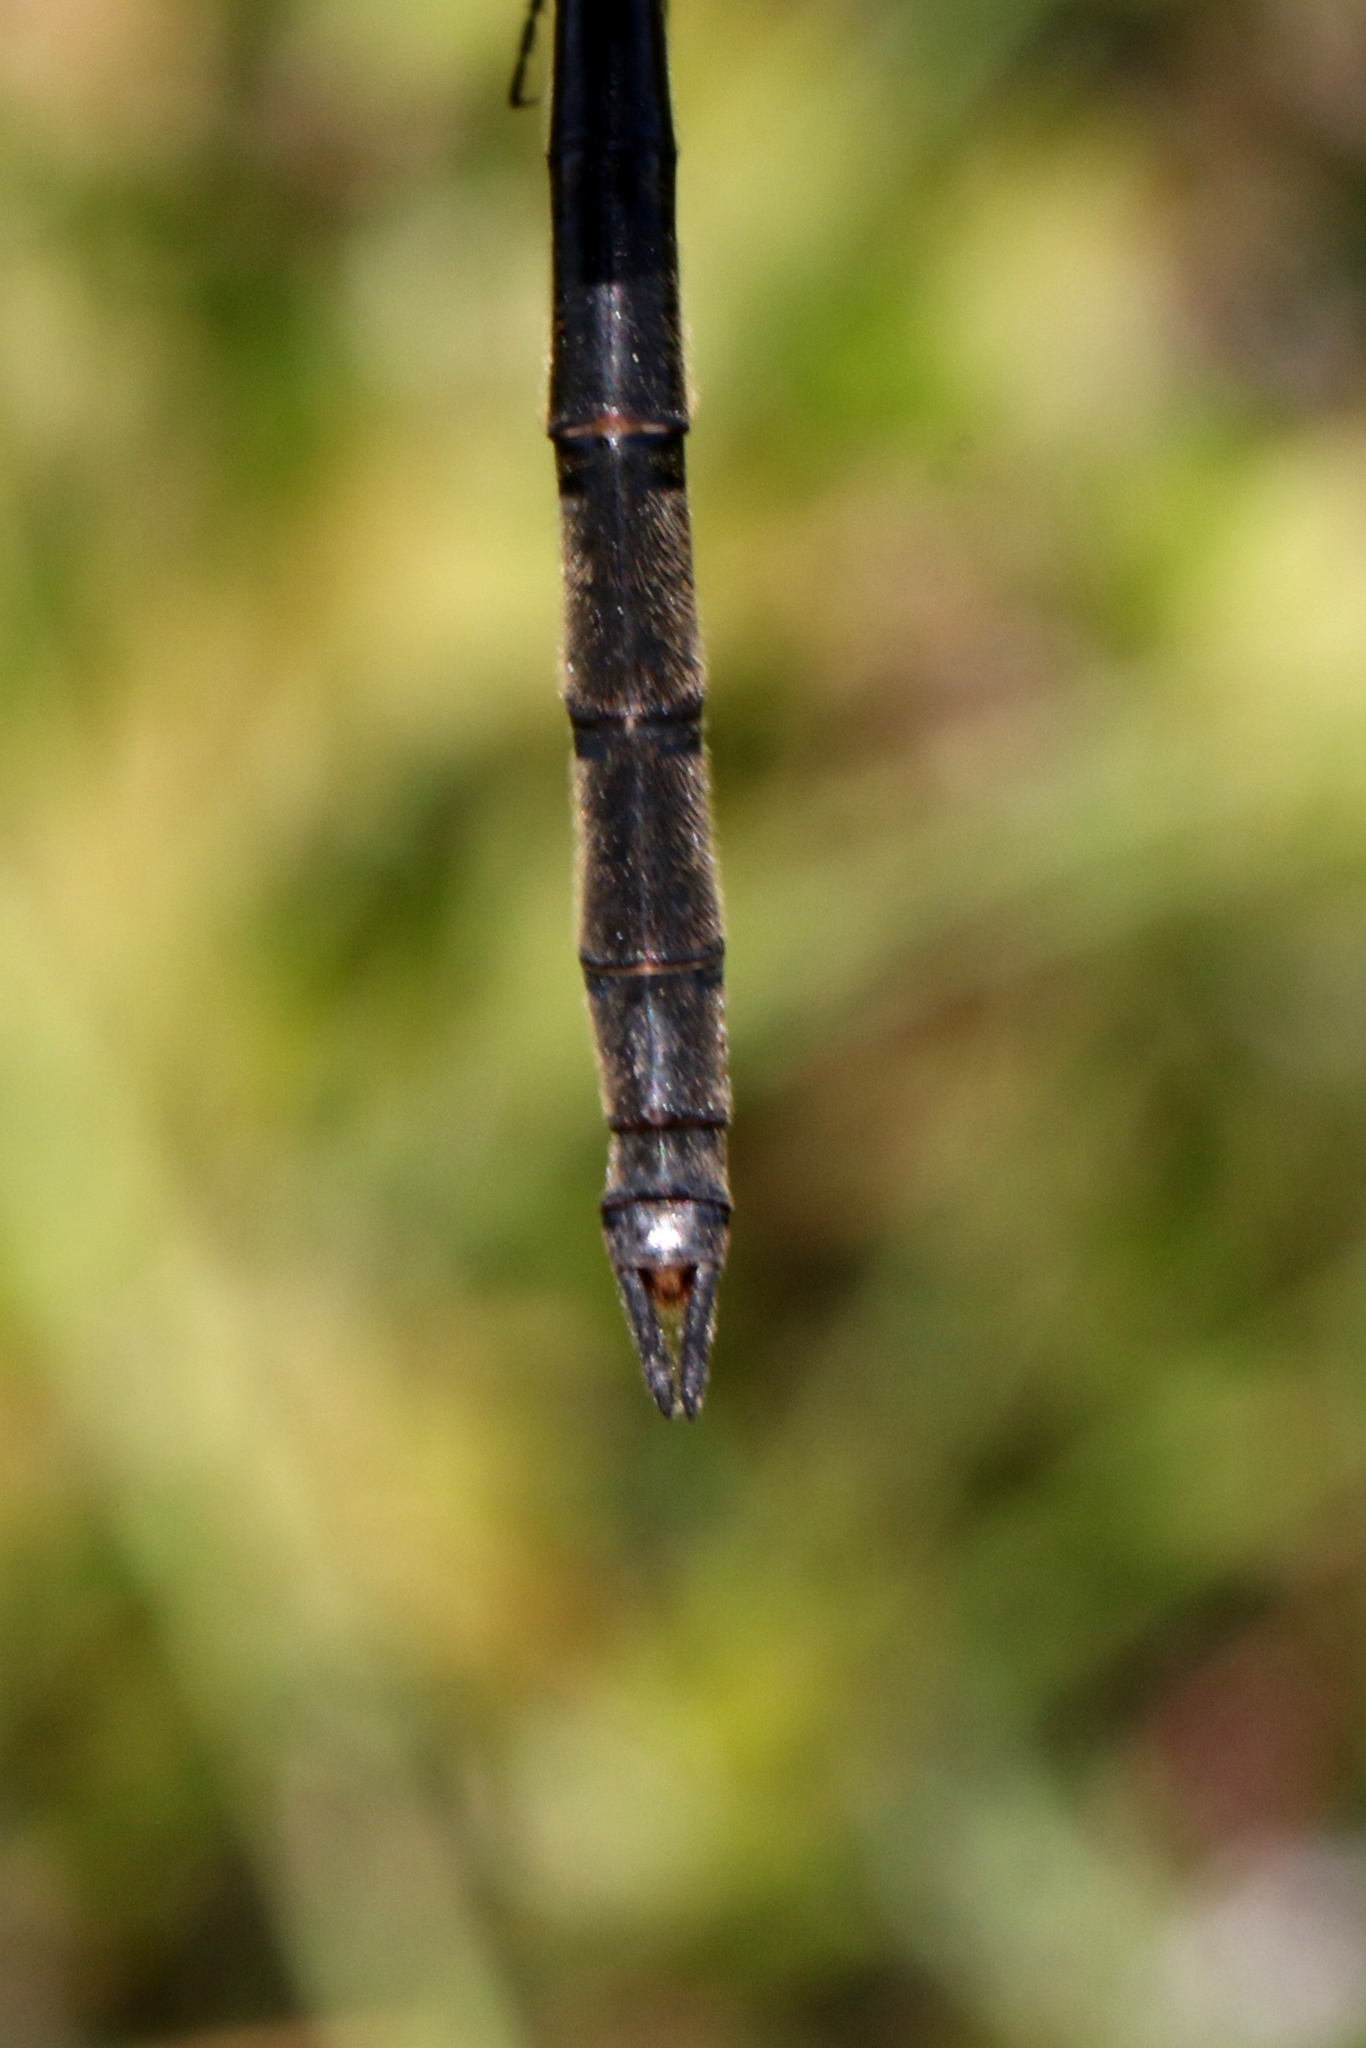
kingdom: Animalia
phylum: Arthropoda
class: Insecta
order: Odonata
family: Corduliidae
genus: Somatochlora
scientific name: Somatochlora franklini
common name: Delicate emerald
